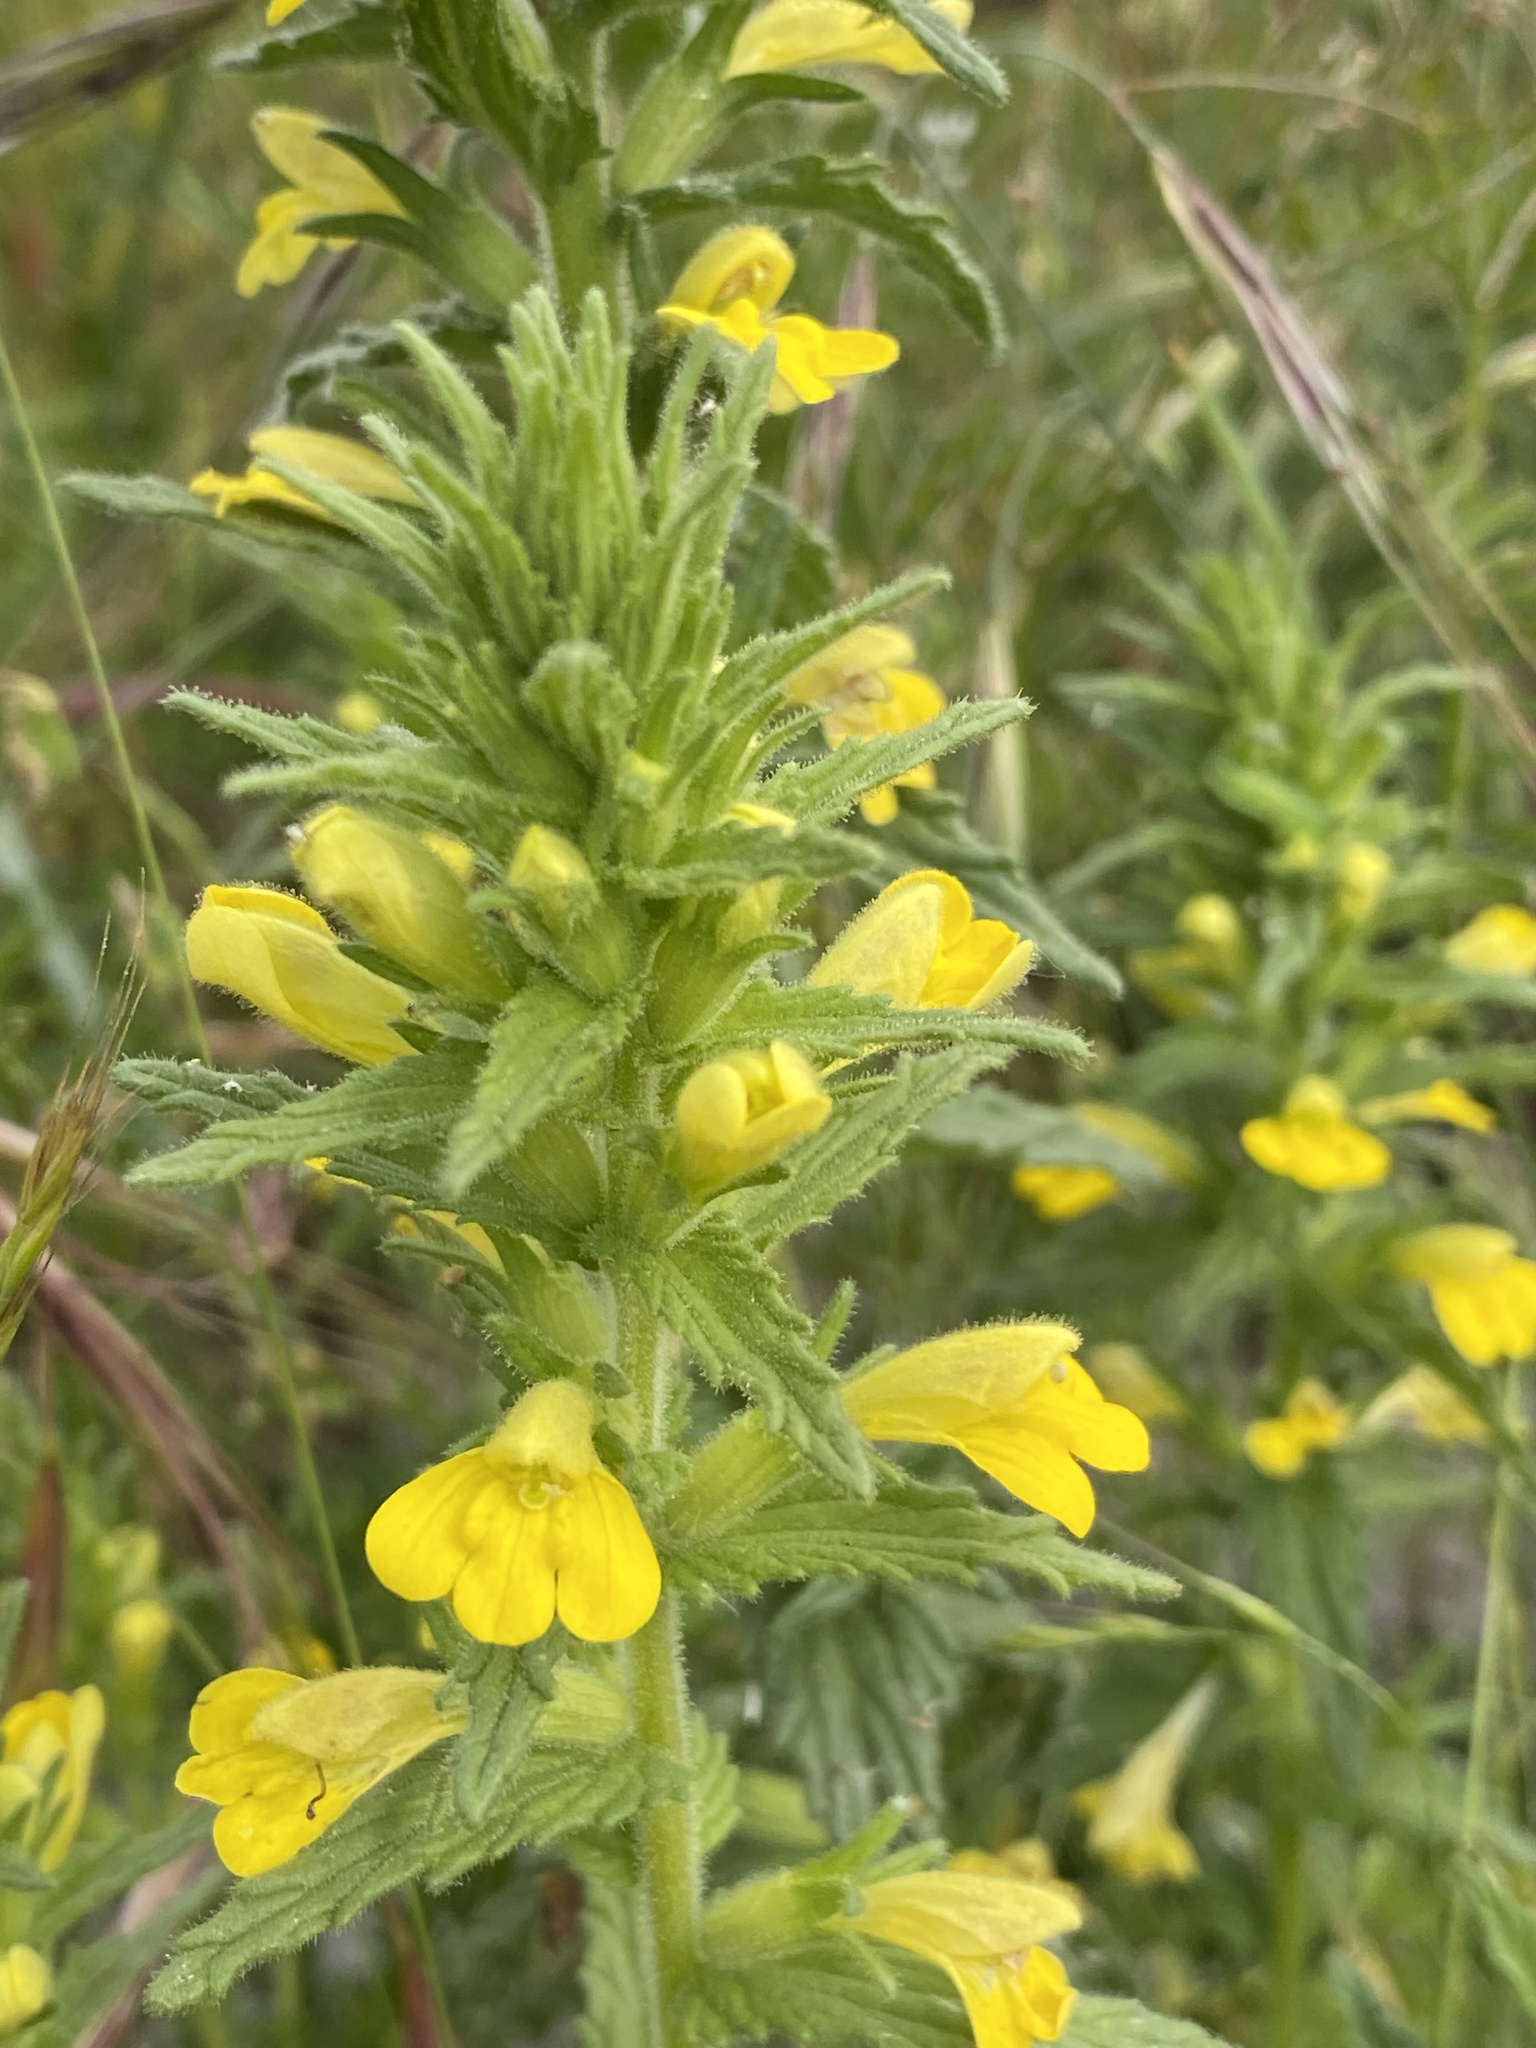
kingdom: Plantae
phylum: Tracheophyta
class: Magnoliopsida
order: Lamiales
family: Orobanchaceae
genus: Bellardia
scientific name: Bellardia viscosa
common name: Sticky parentucellia
